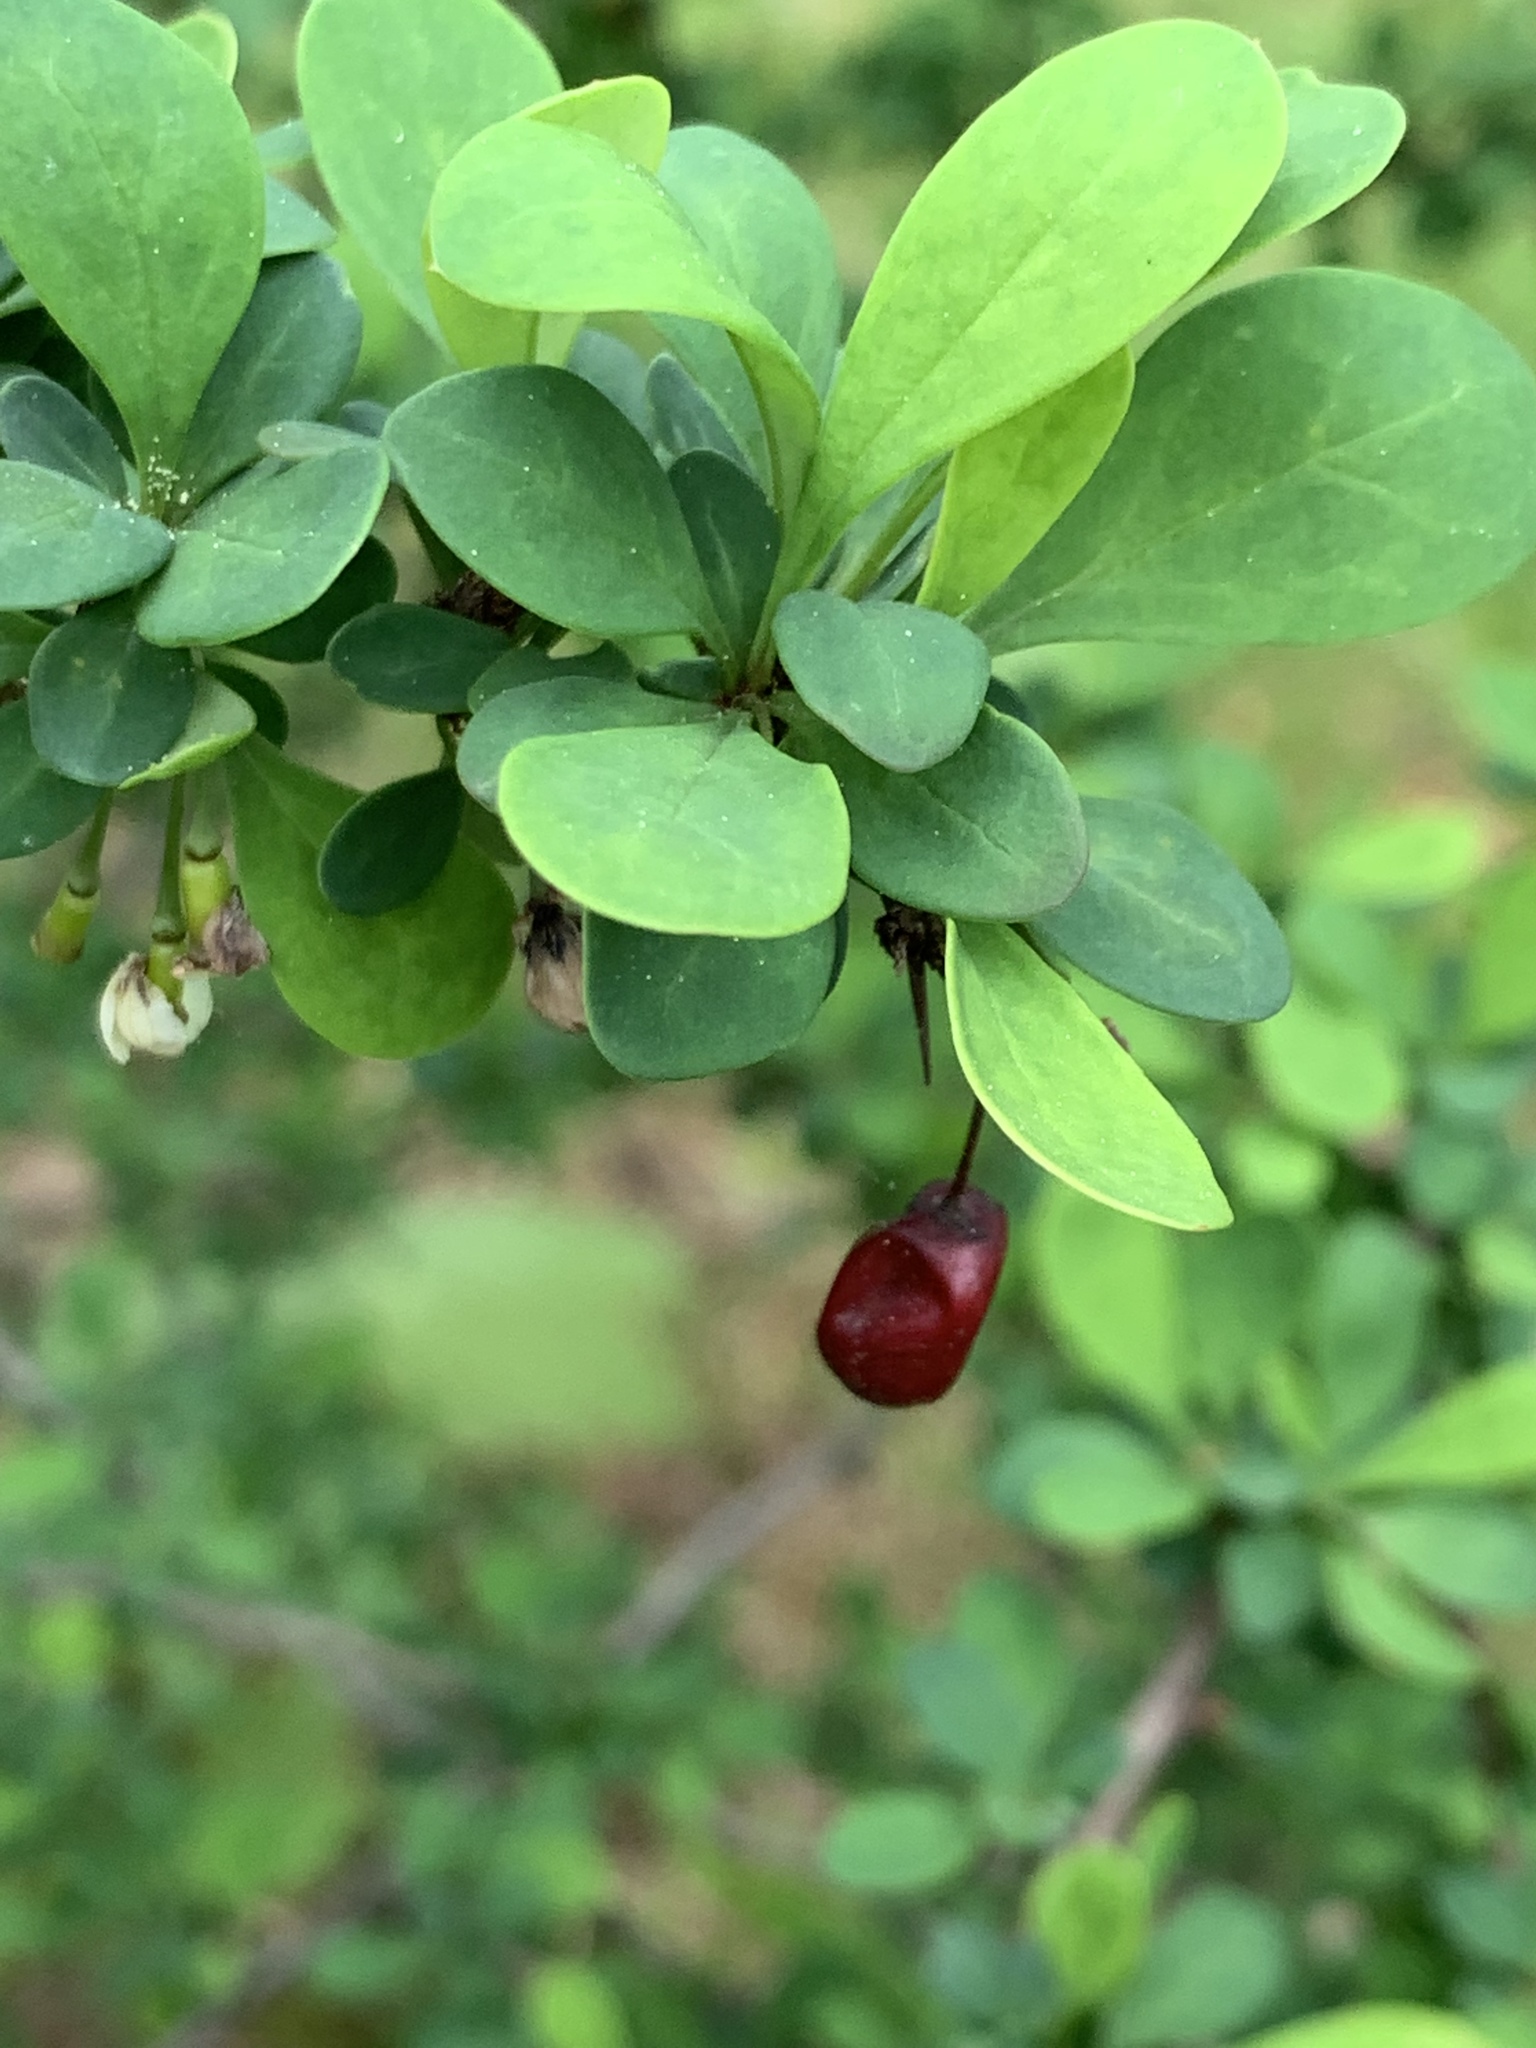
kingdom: Plantae
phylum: Tracheophyta
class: Magnoliopsida
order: Ranunculales
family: Berberidaceae
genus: Berberis
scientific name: Berberis thunbergii
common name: Japanese barberry
